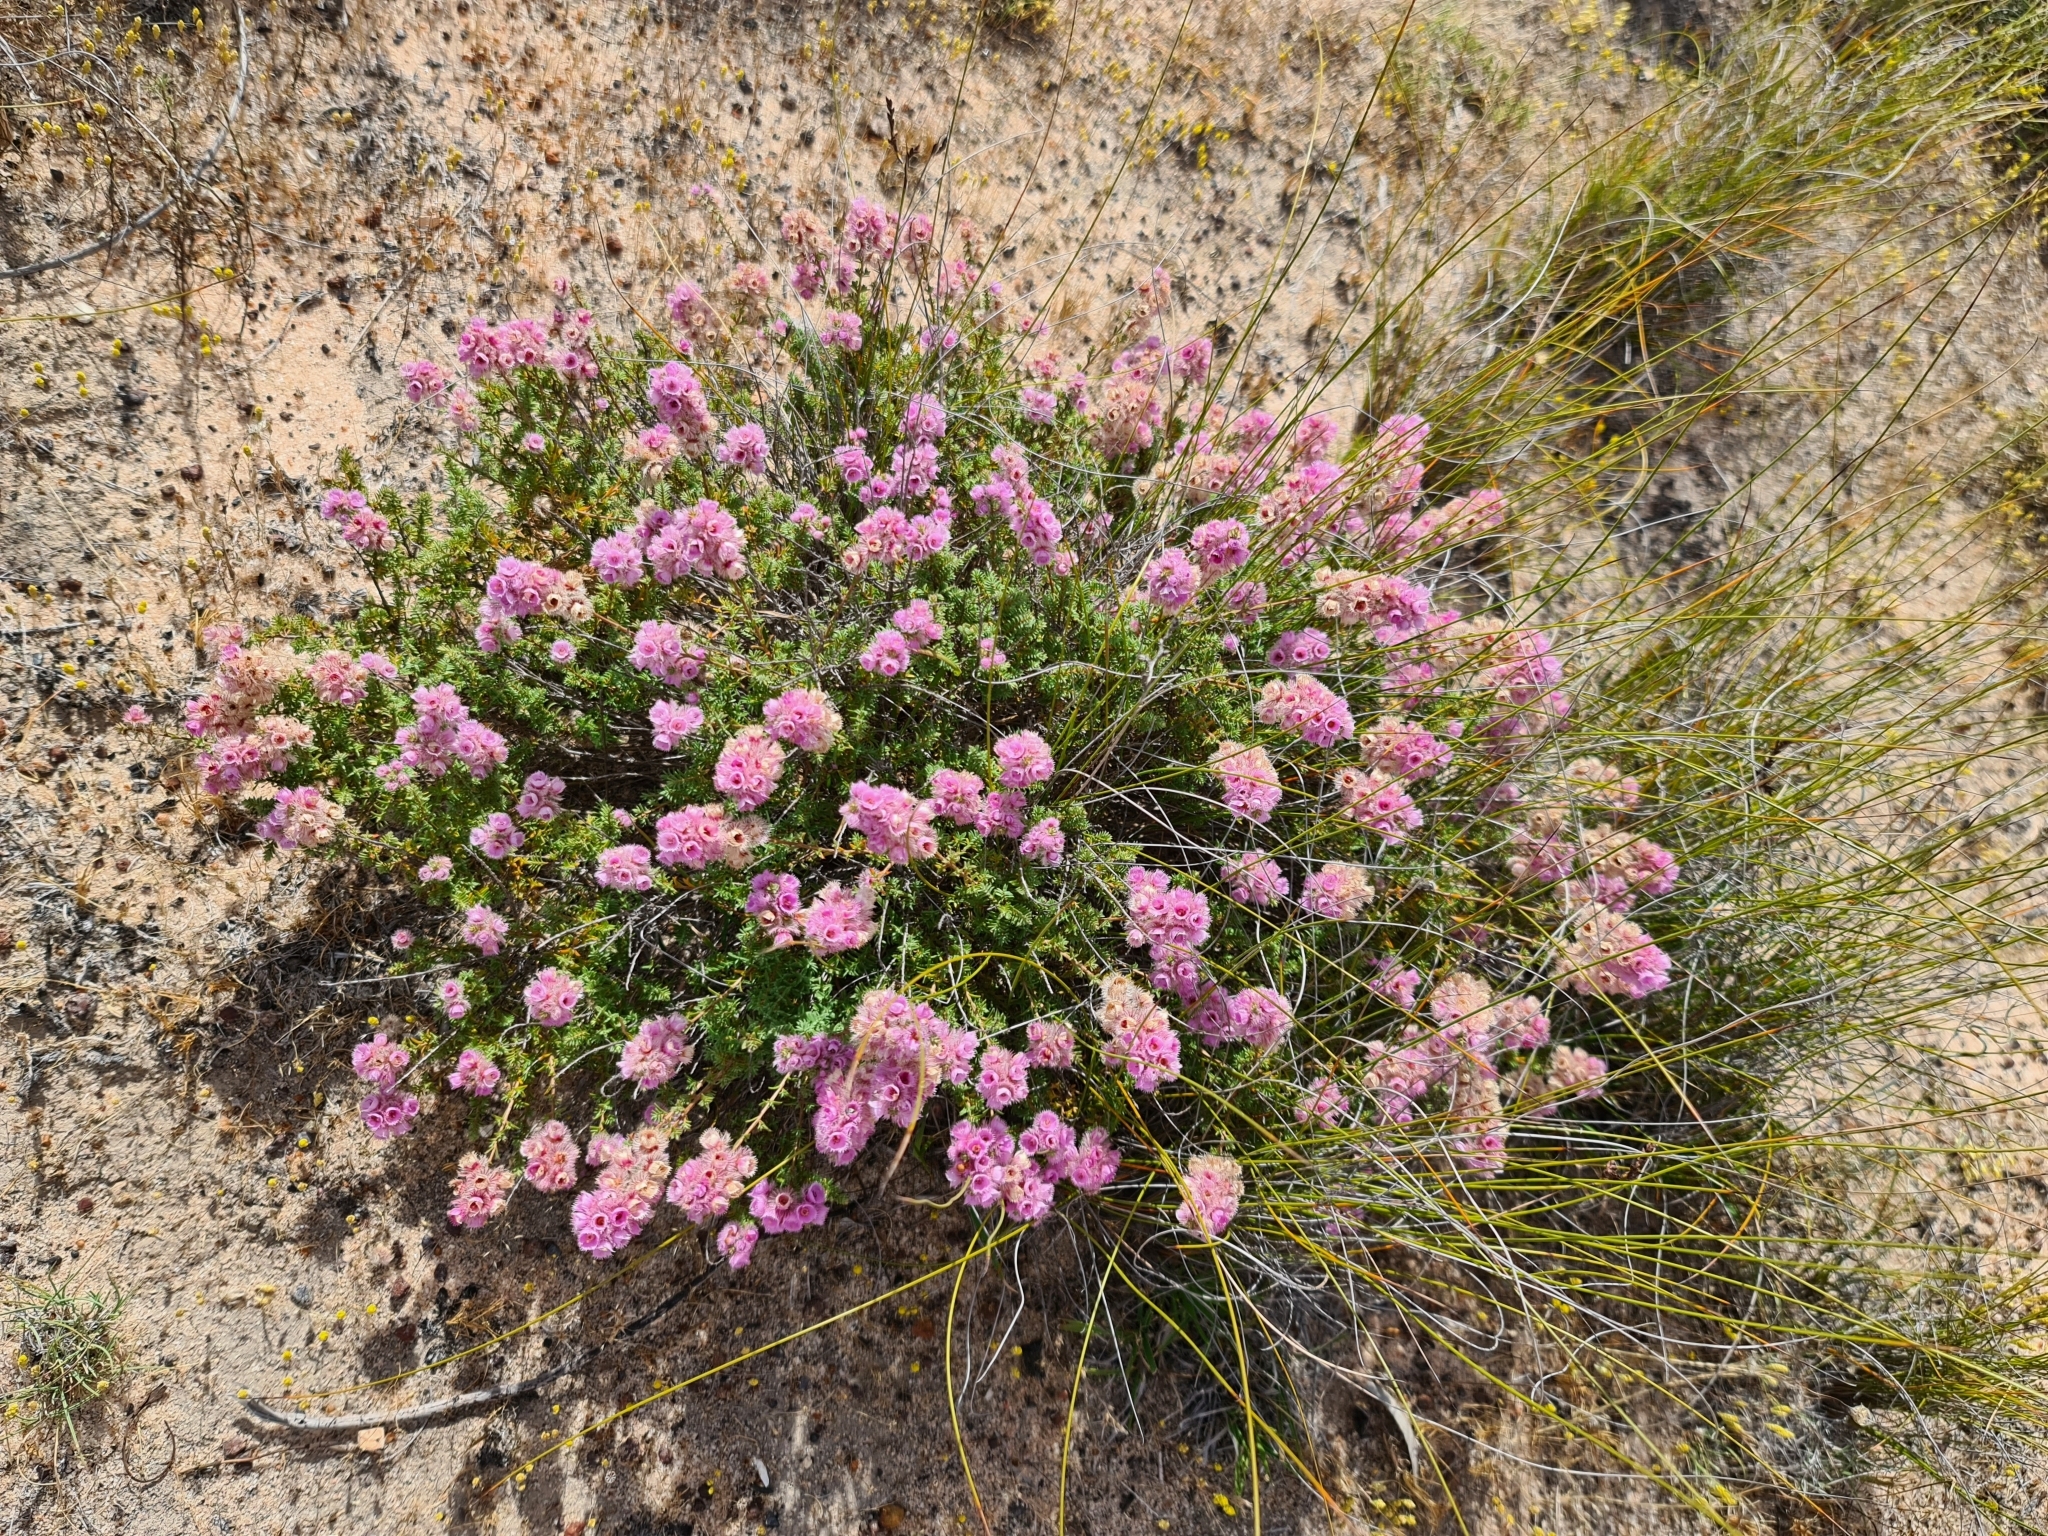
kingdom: Plantae
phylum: Tracheophyta
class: Magnoliopsida
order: Myrtales
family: Myrtaceae
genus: Verticordia
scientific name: Verticordia pennigera
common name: Native-tea
